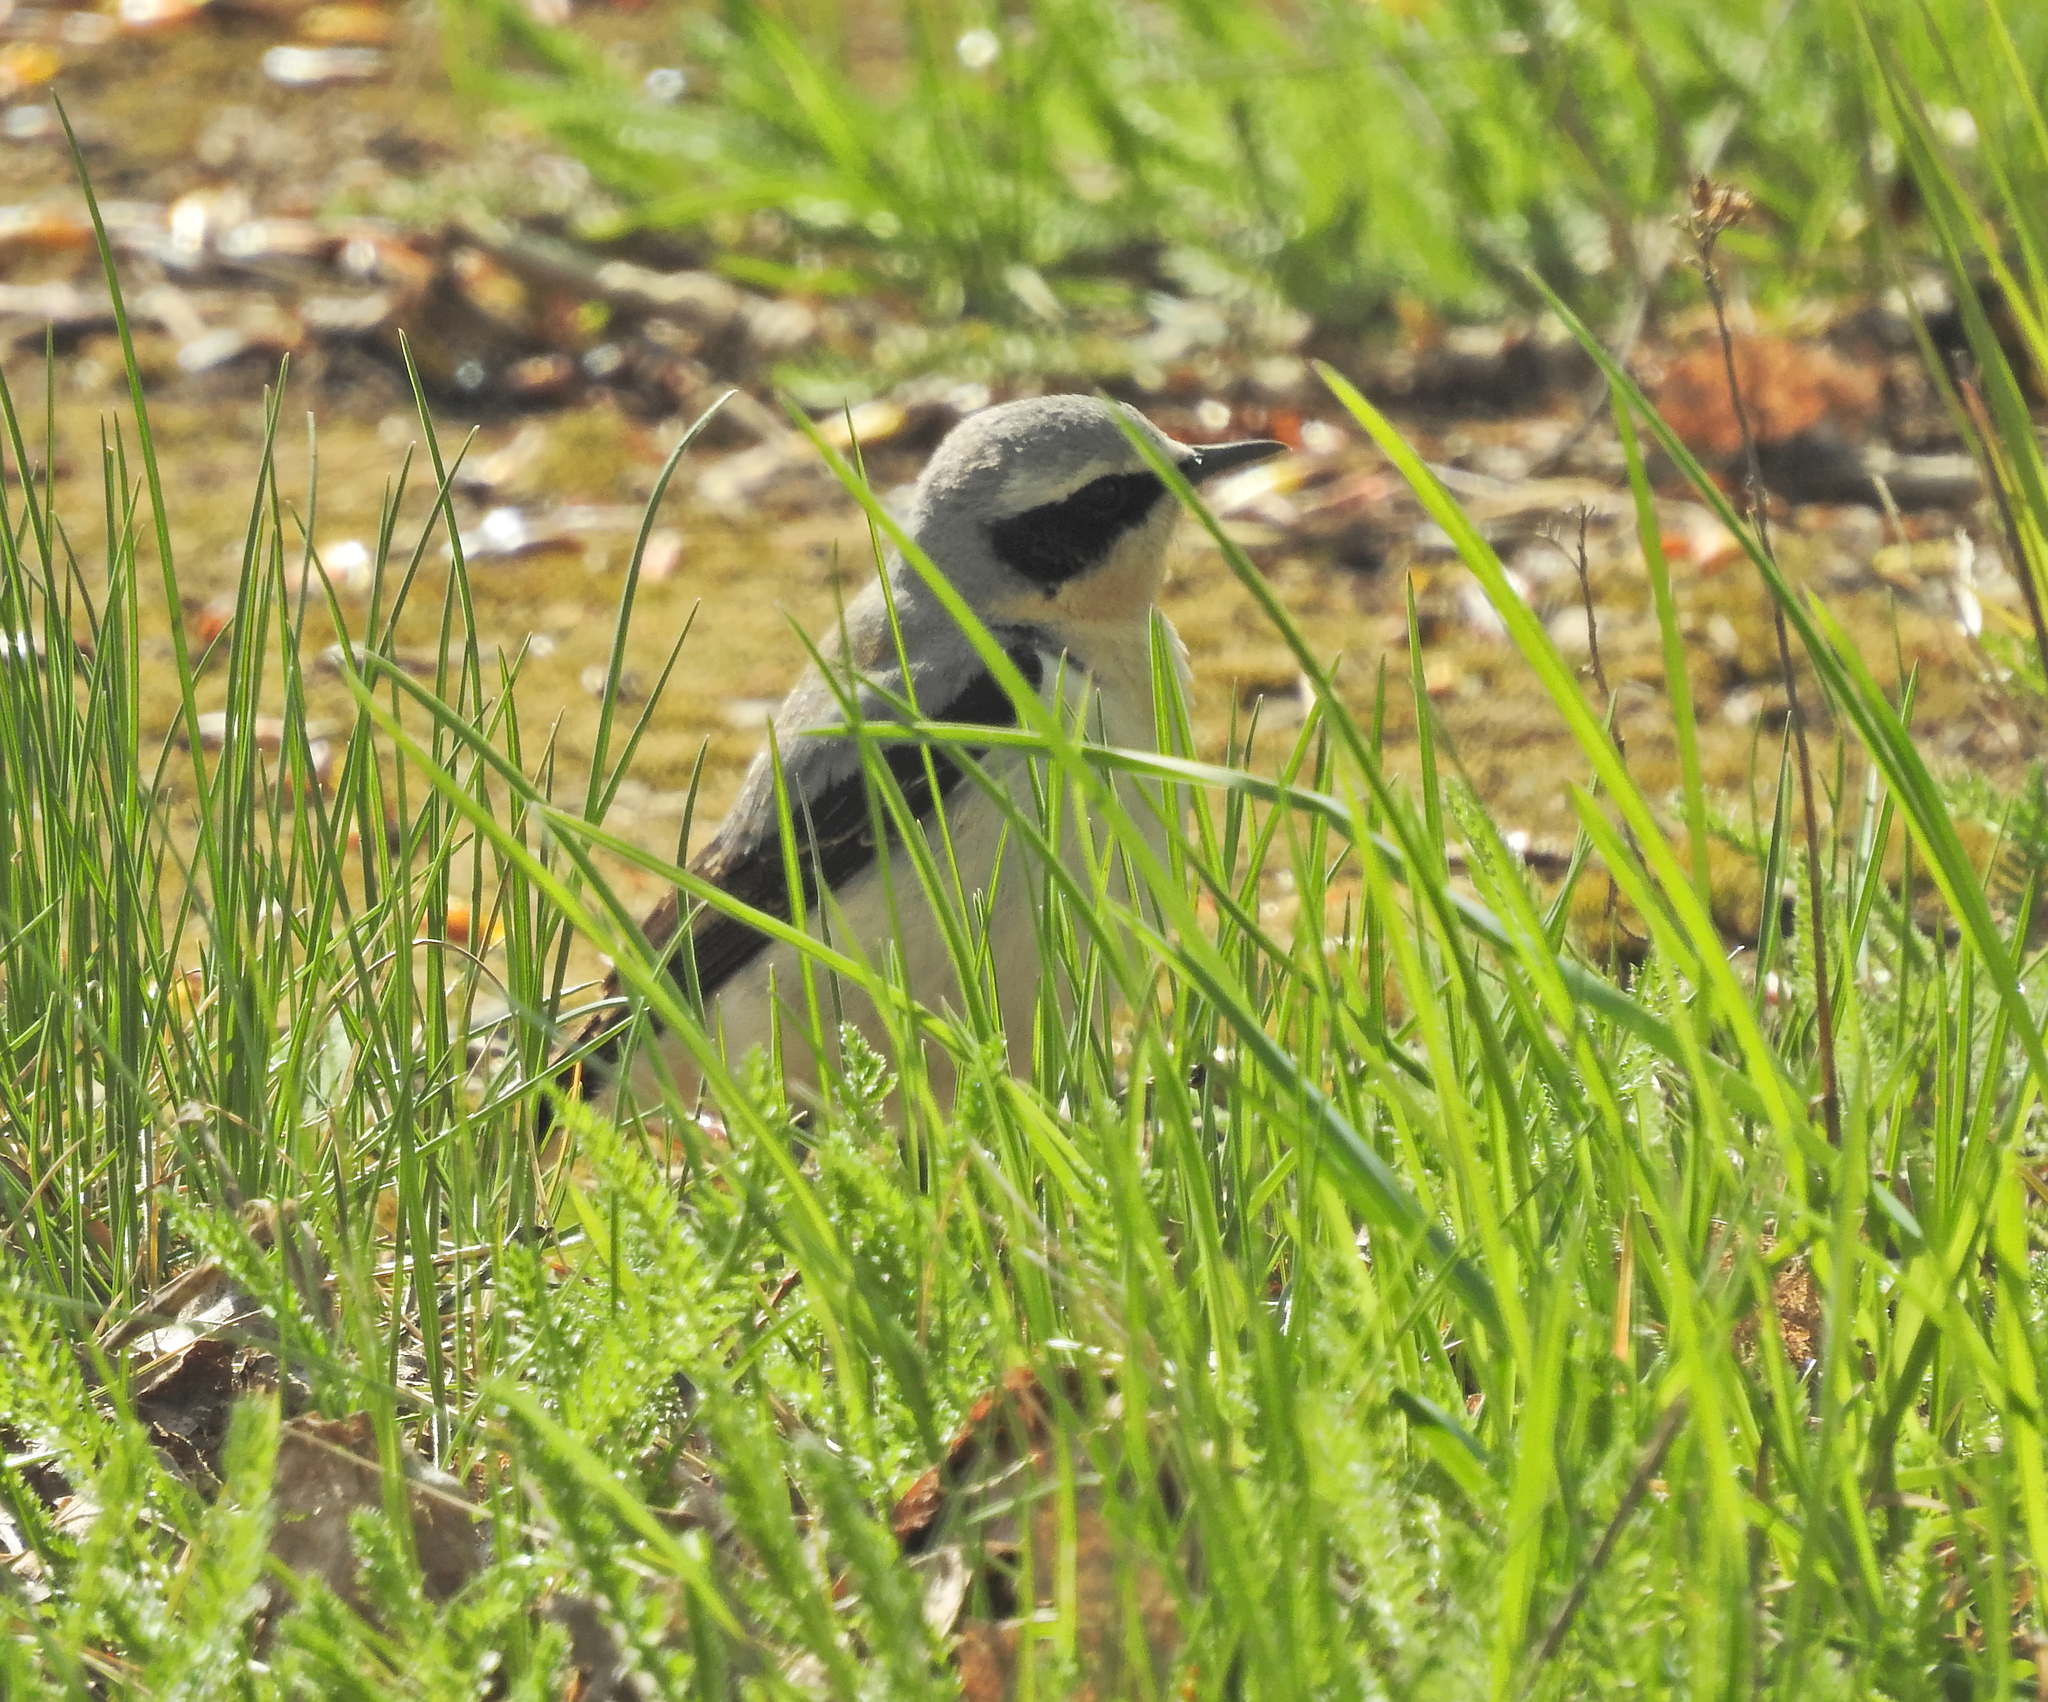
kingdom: Animalia
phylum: Chordata
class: Aves
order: Passeriformes
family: Muscicapidae
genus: Oenanthe
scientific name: Oenanthe oenanthe
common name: Northern wheatear
